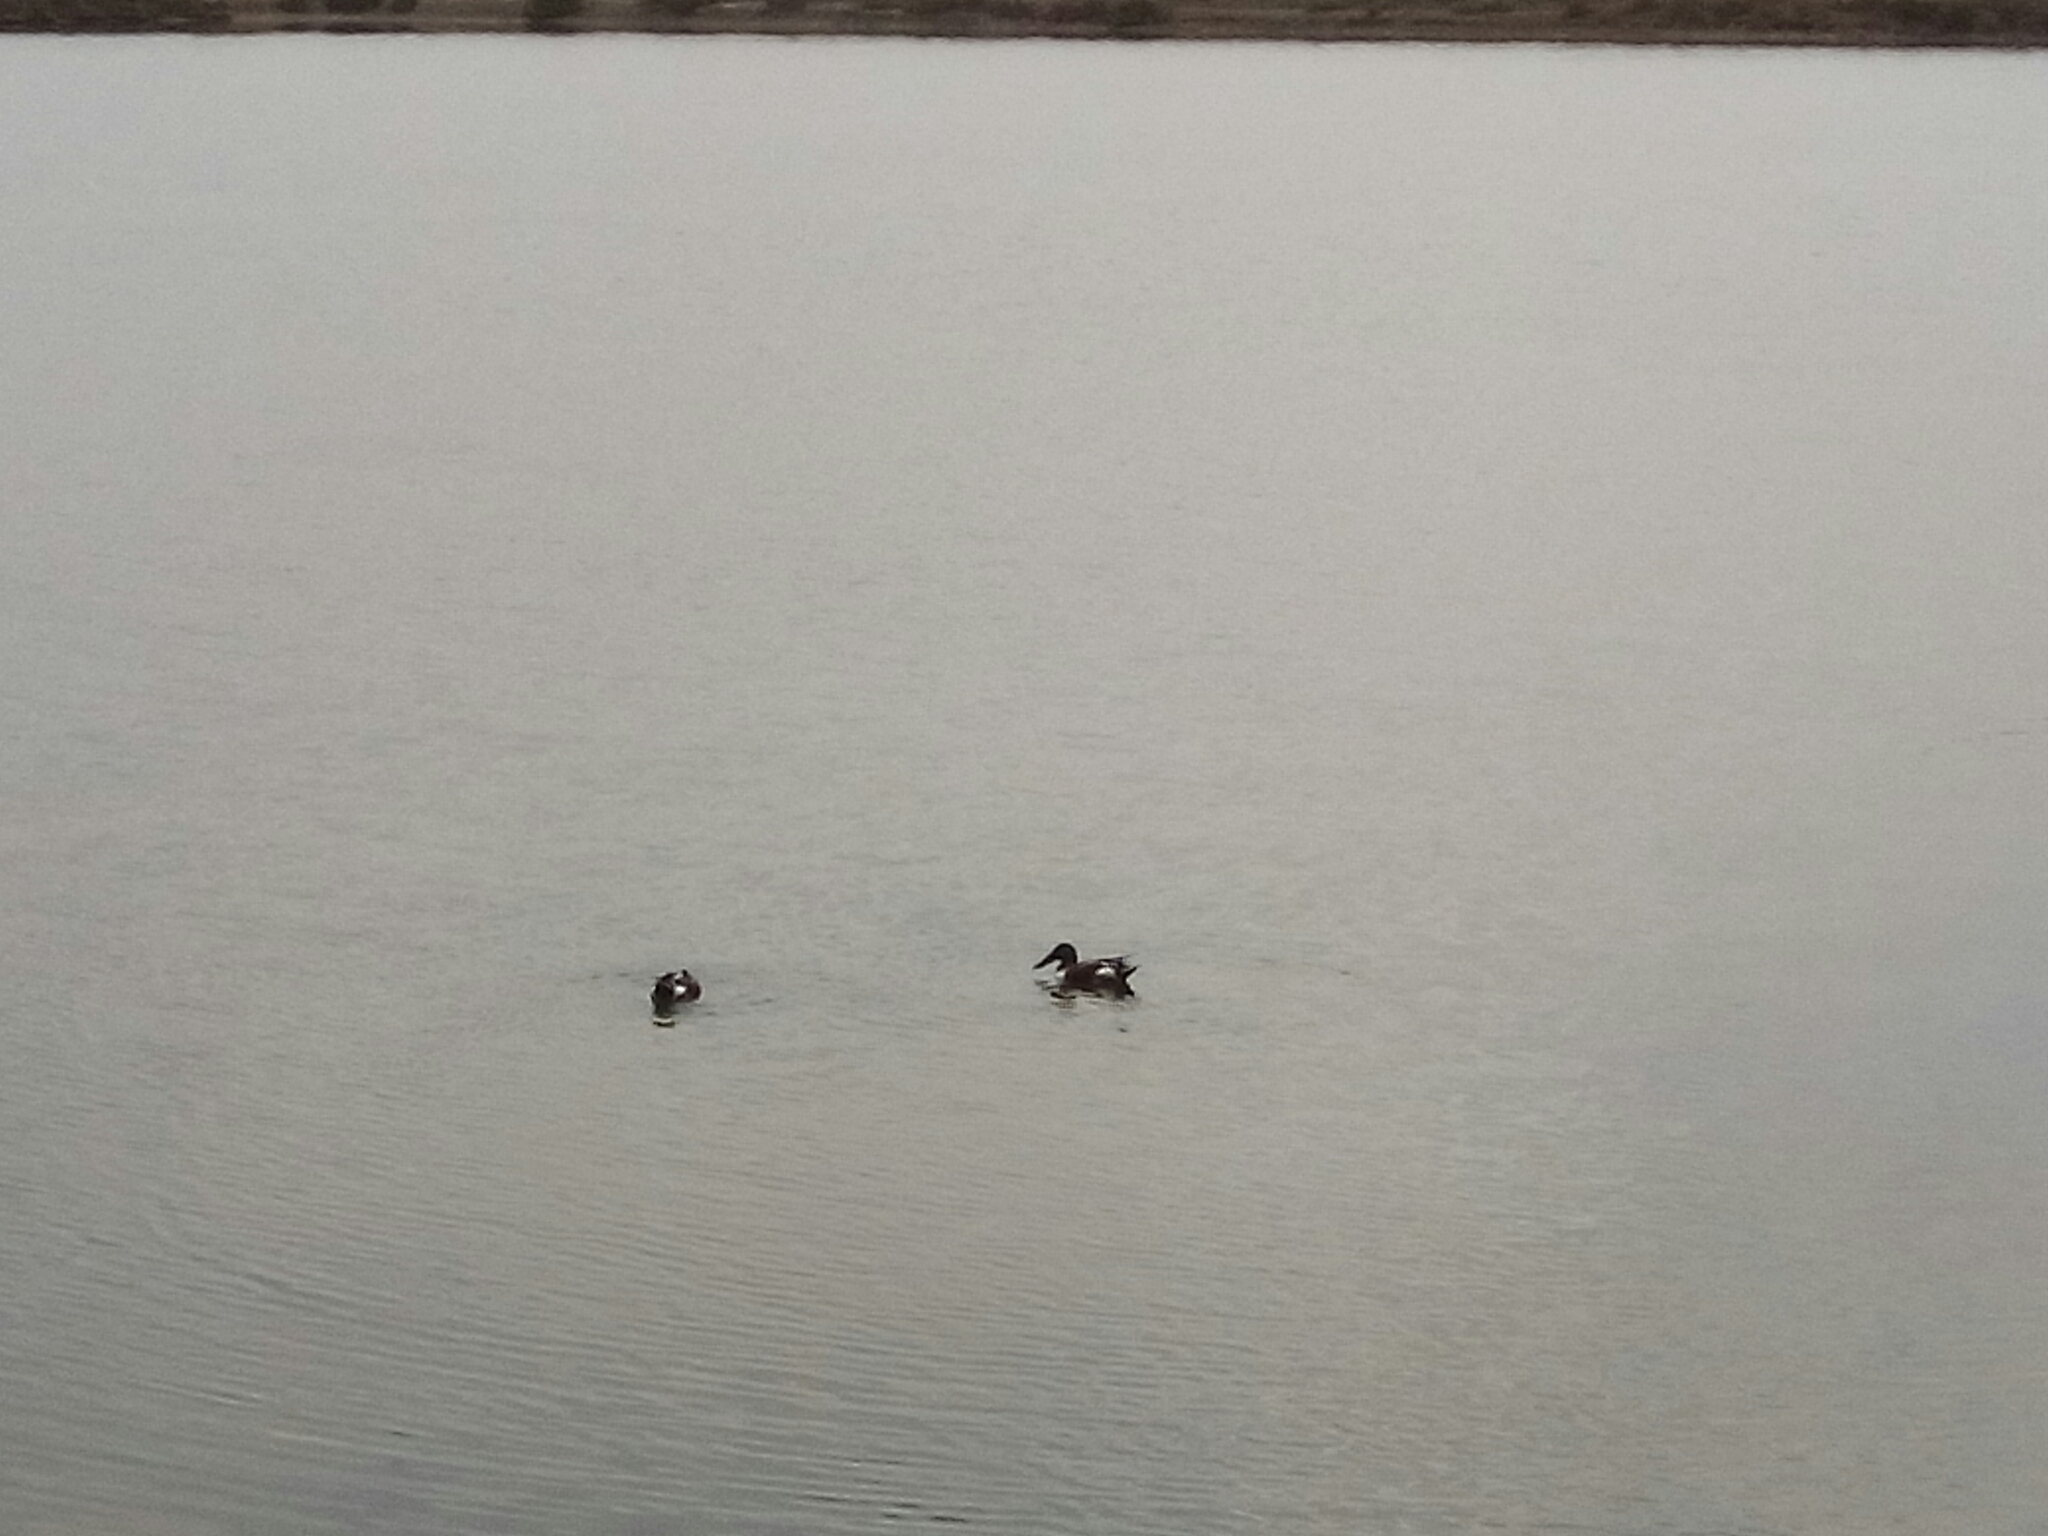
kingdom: Animalia
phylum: Chordata
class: Aves
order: Anseriformes
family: Anatidae
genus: Spatula
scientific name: Spatula clypeata
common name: Northern shoveler
